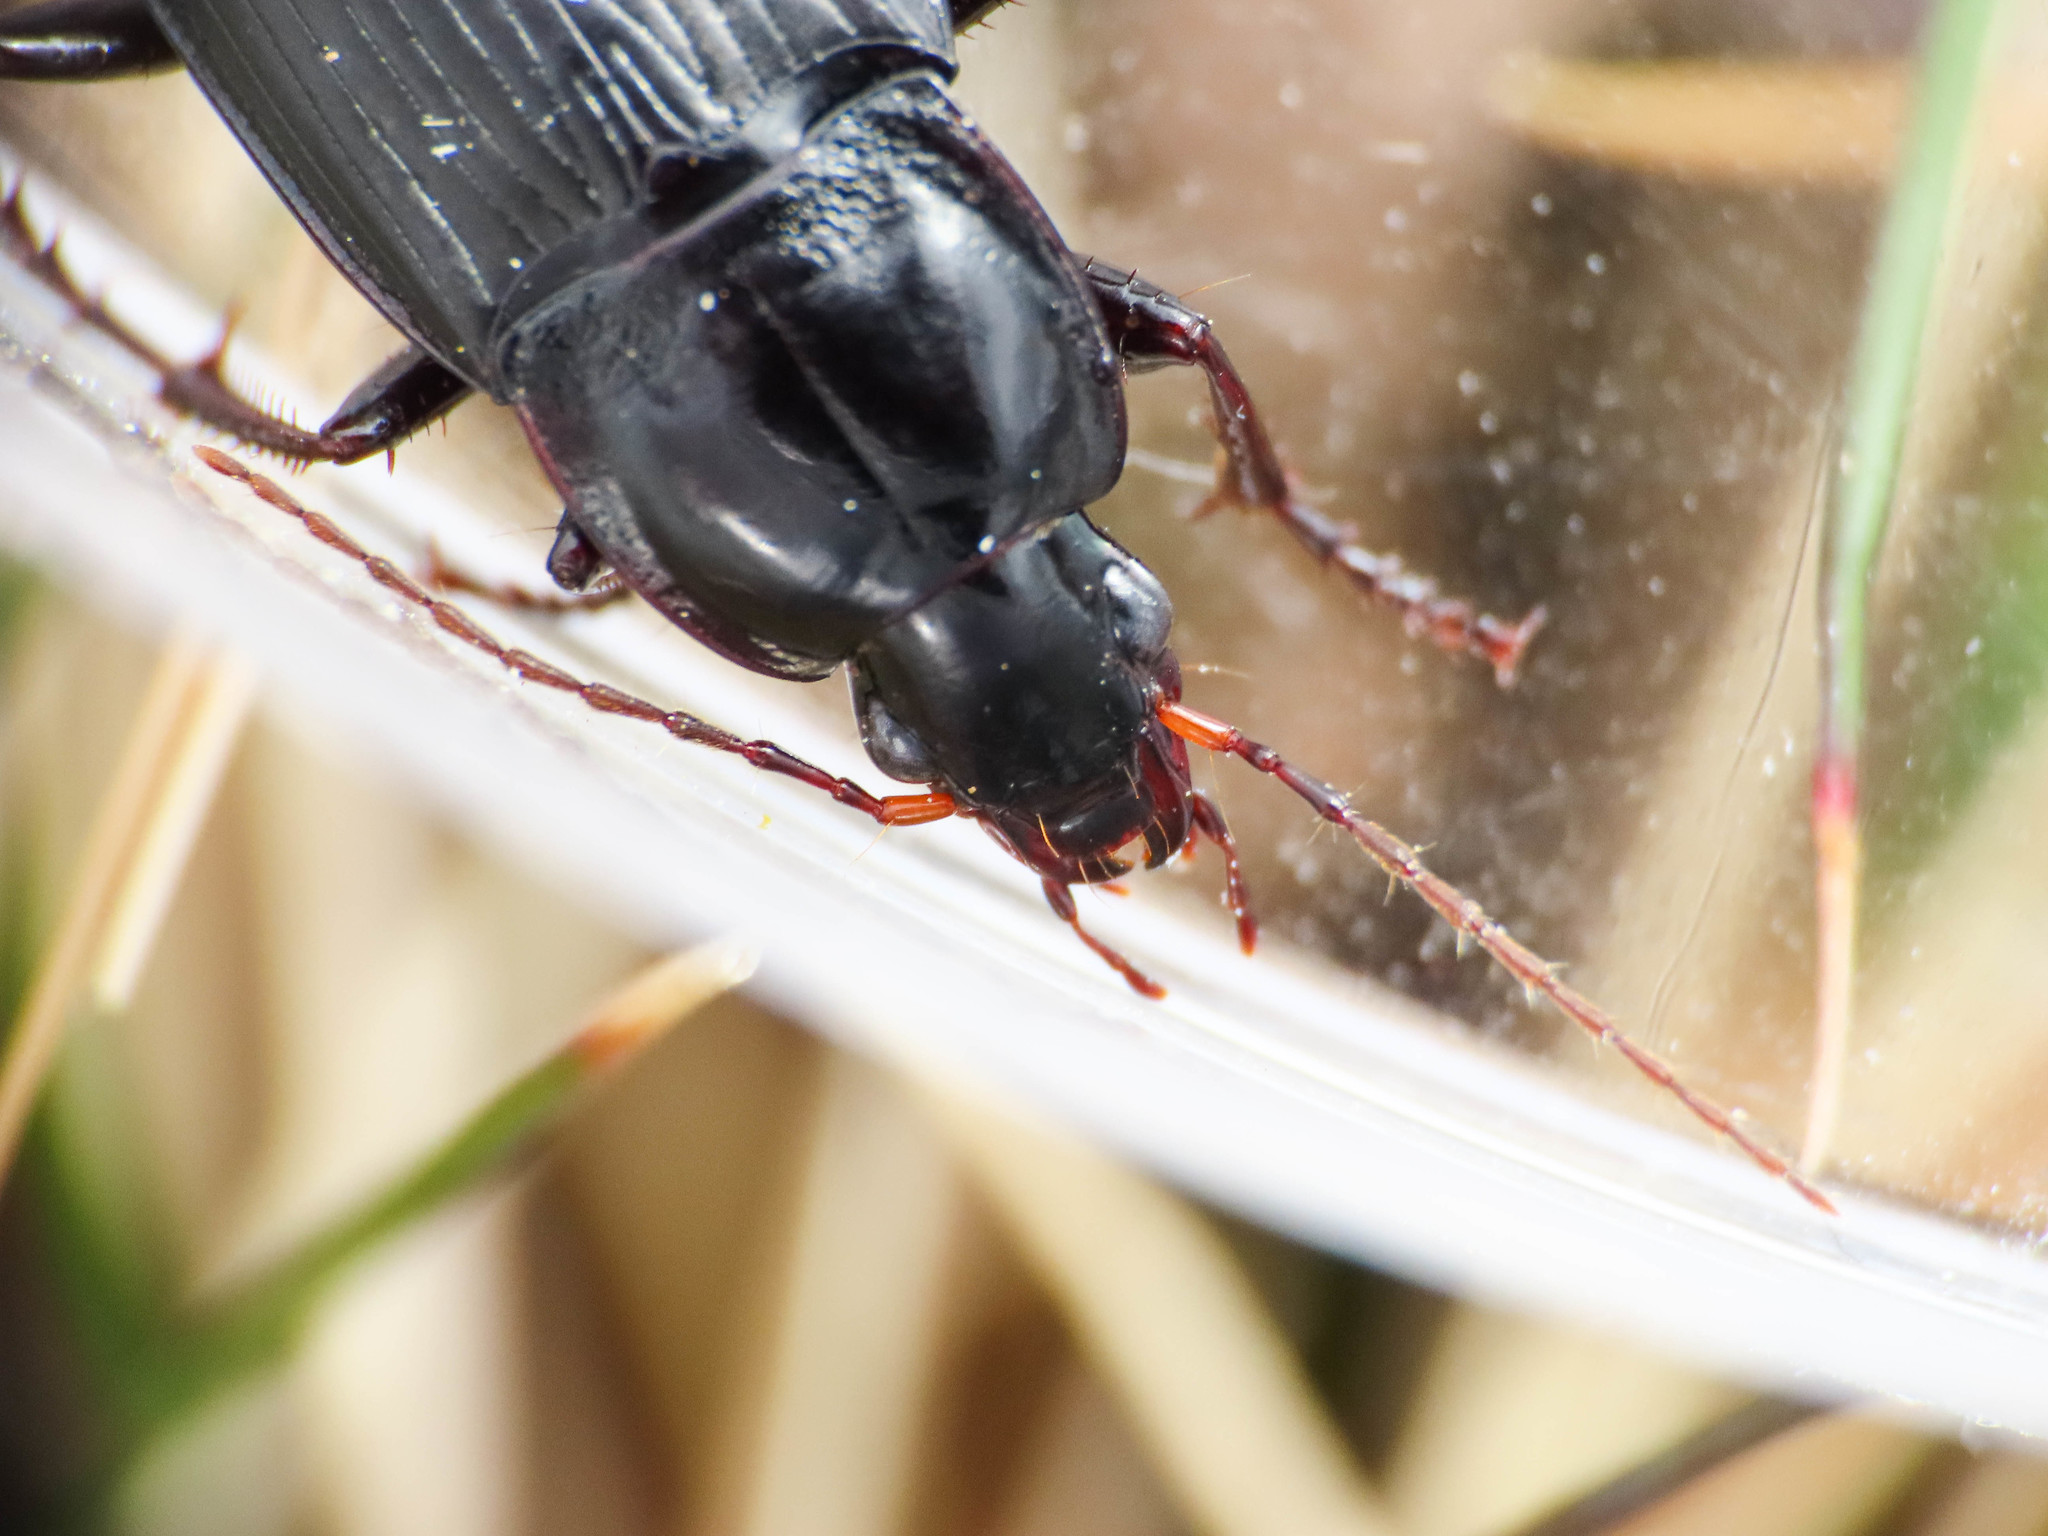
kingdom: Animalia
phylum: Arthropoda
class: Insecta
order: Coleoptera
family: Carabidae
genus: Calathus
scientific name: Calathus fuscipes
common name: Dark-footed harp ground beetle
